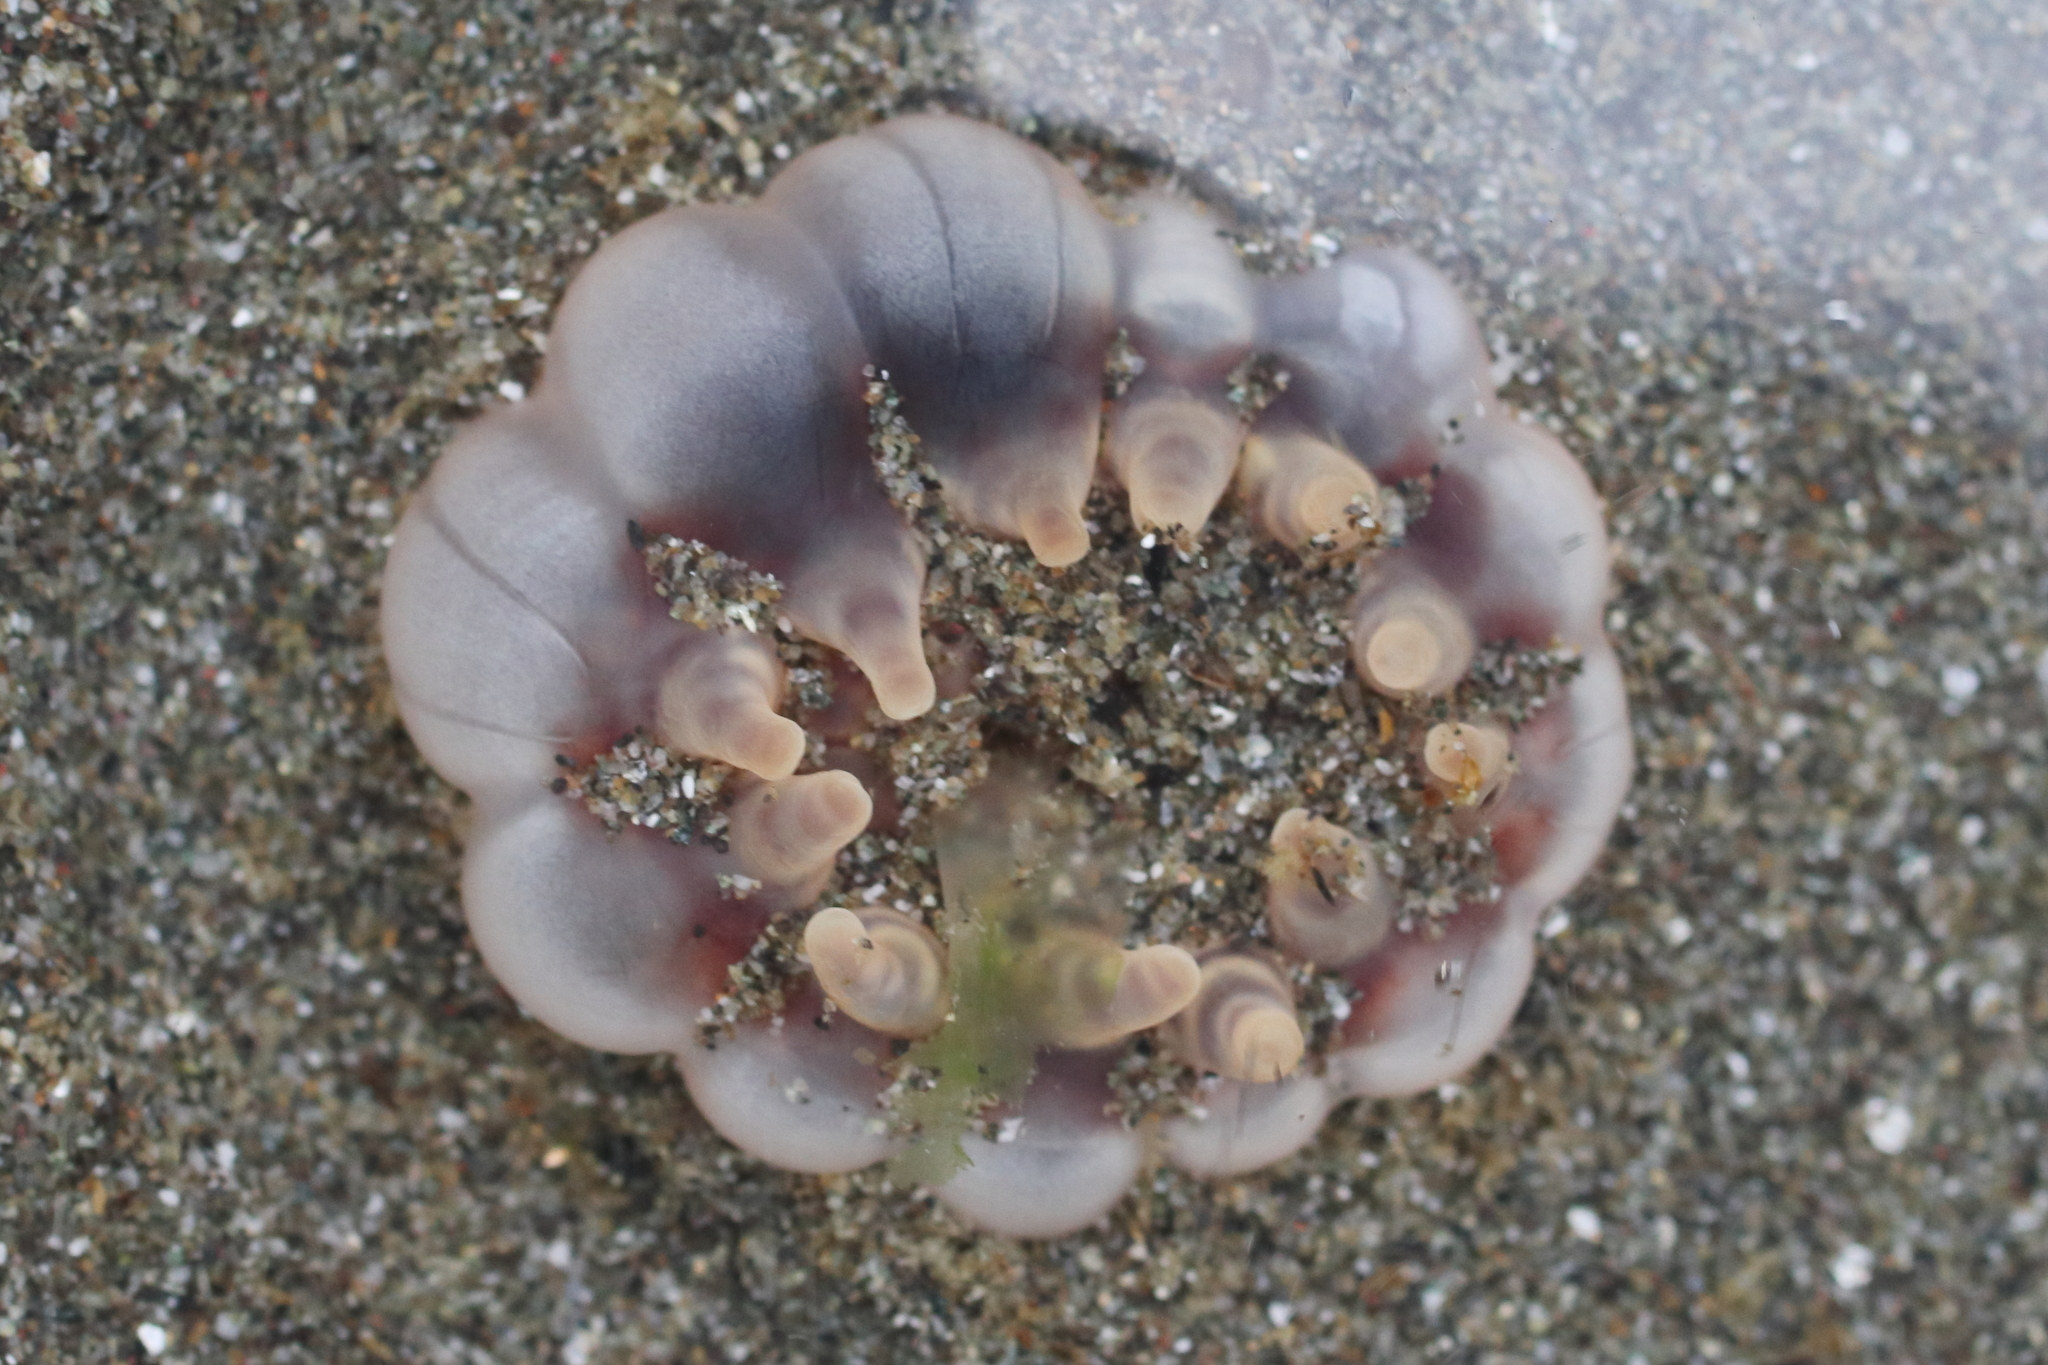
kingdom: Animalia
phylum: Cnidaria
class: Anthozoa
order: Actiniaria
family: Peachiidae
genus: Peachia
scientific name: Peachia quinquecapitata
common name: Twelve-tentacled parasitic anemone
